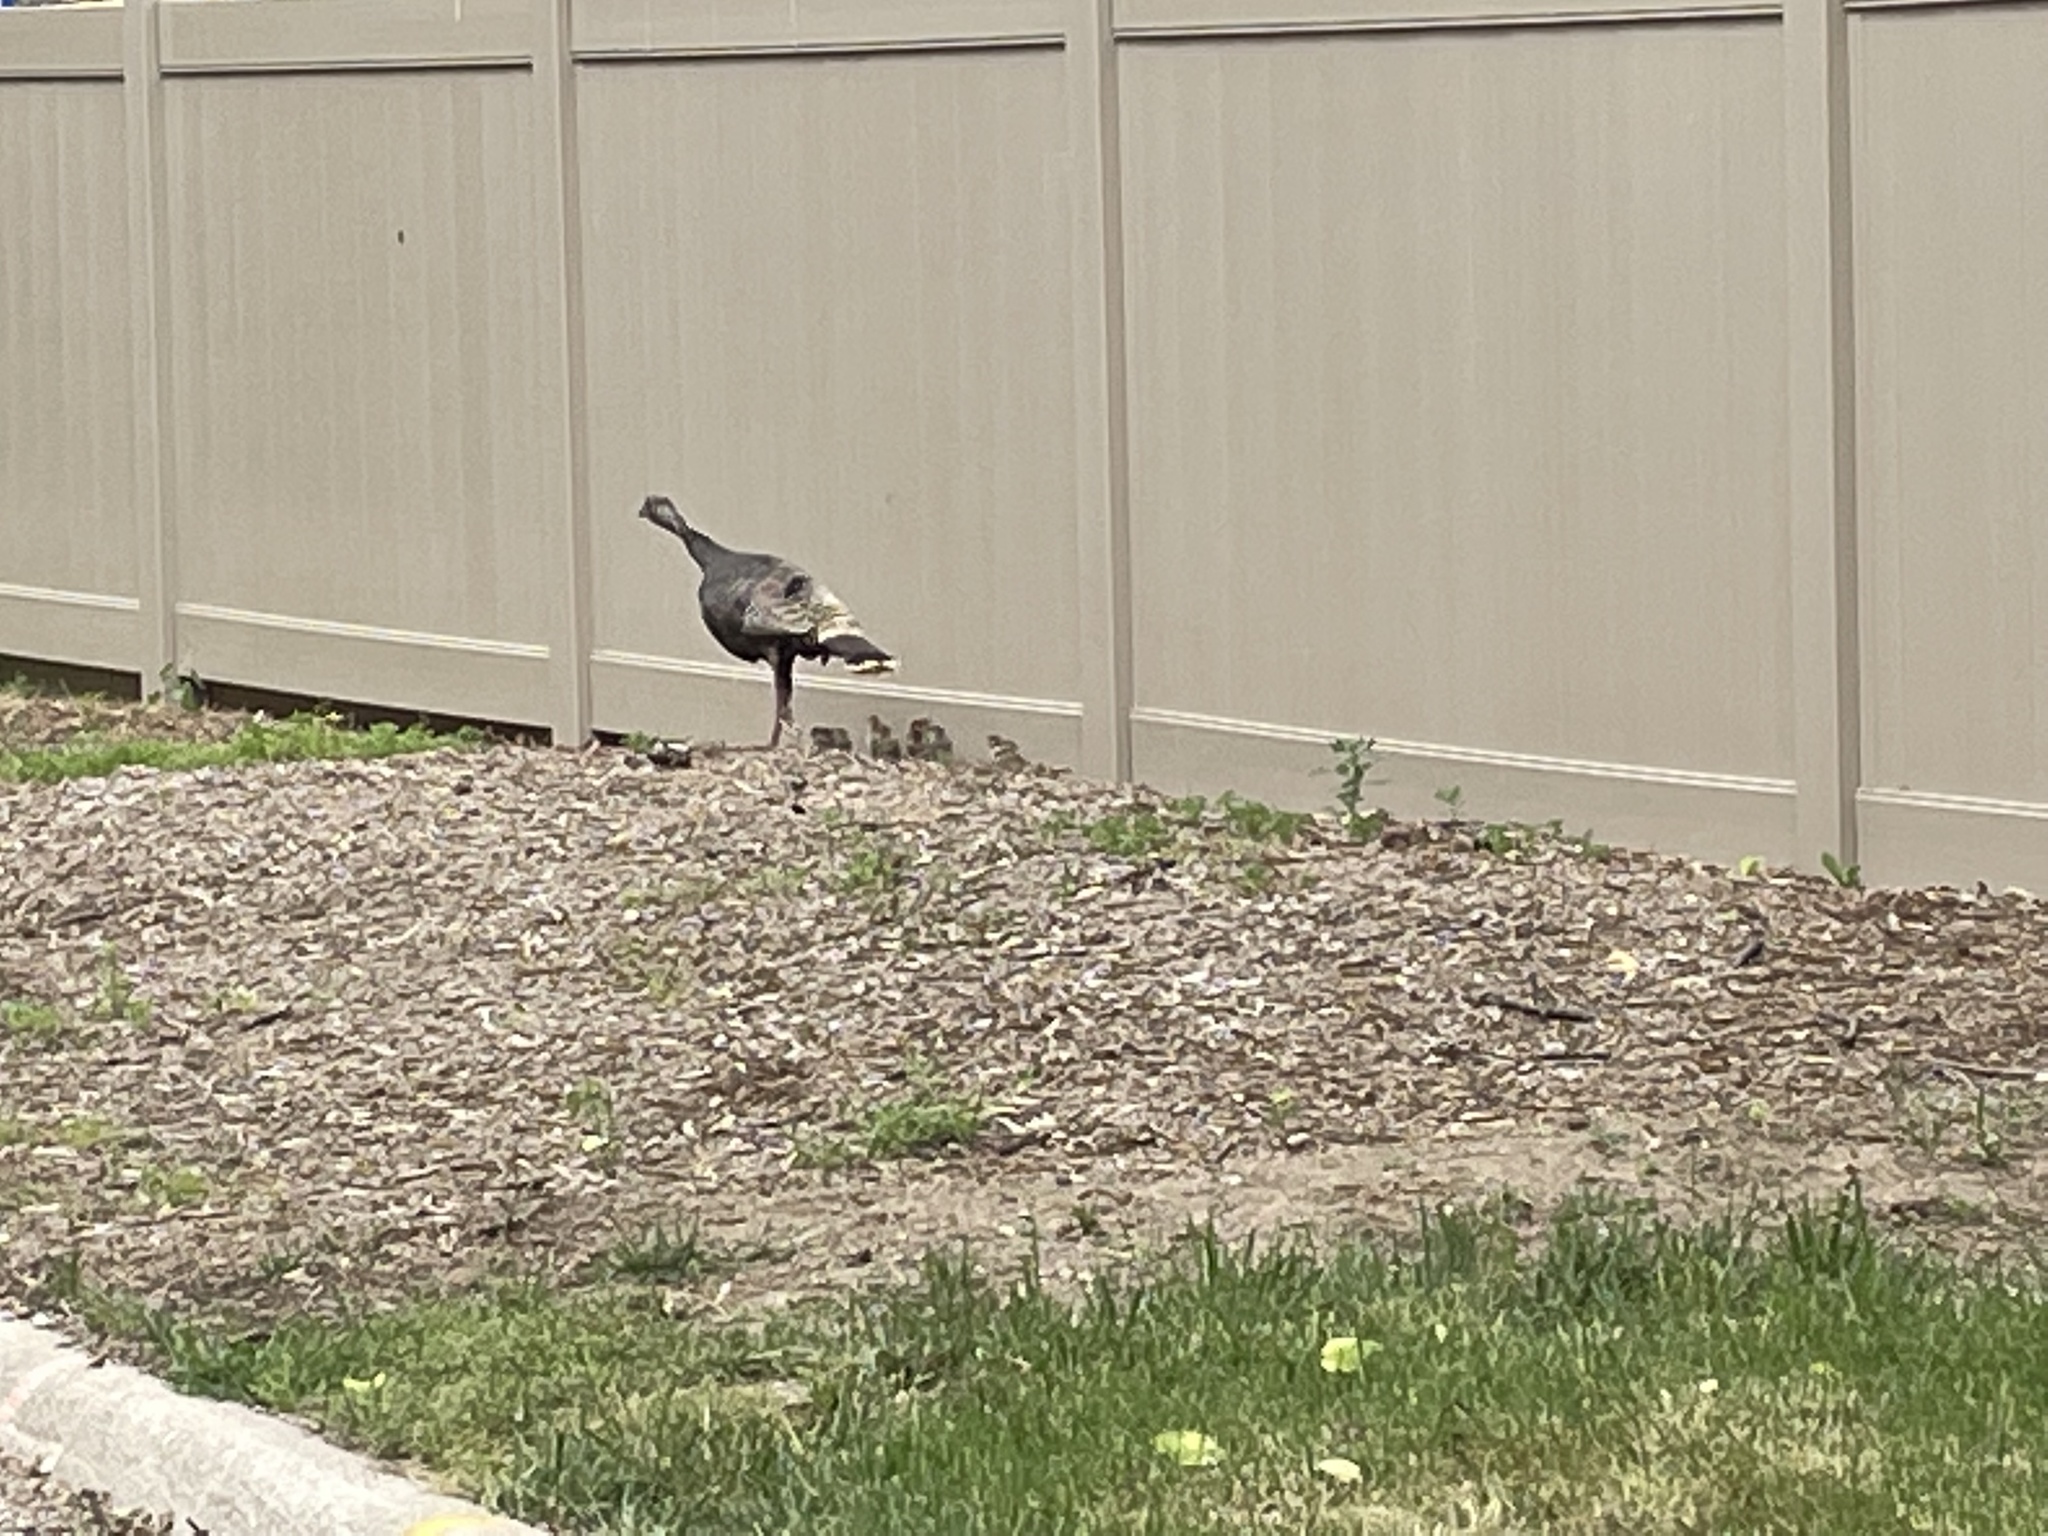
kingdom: Animalia
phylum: Chordata
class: Aves
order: Galliformes
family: Phasianidae
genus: Meleagris
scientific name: Meleagris gallopavo
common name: Wild turkey
